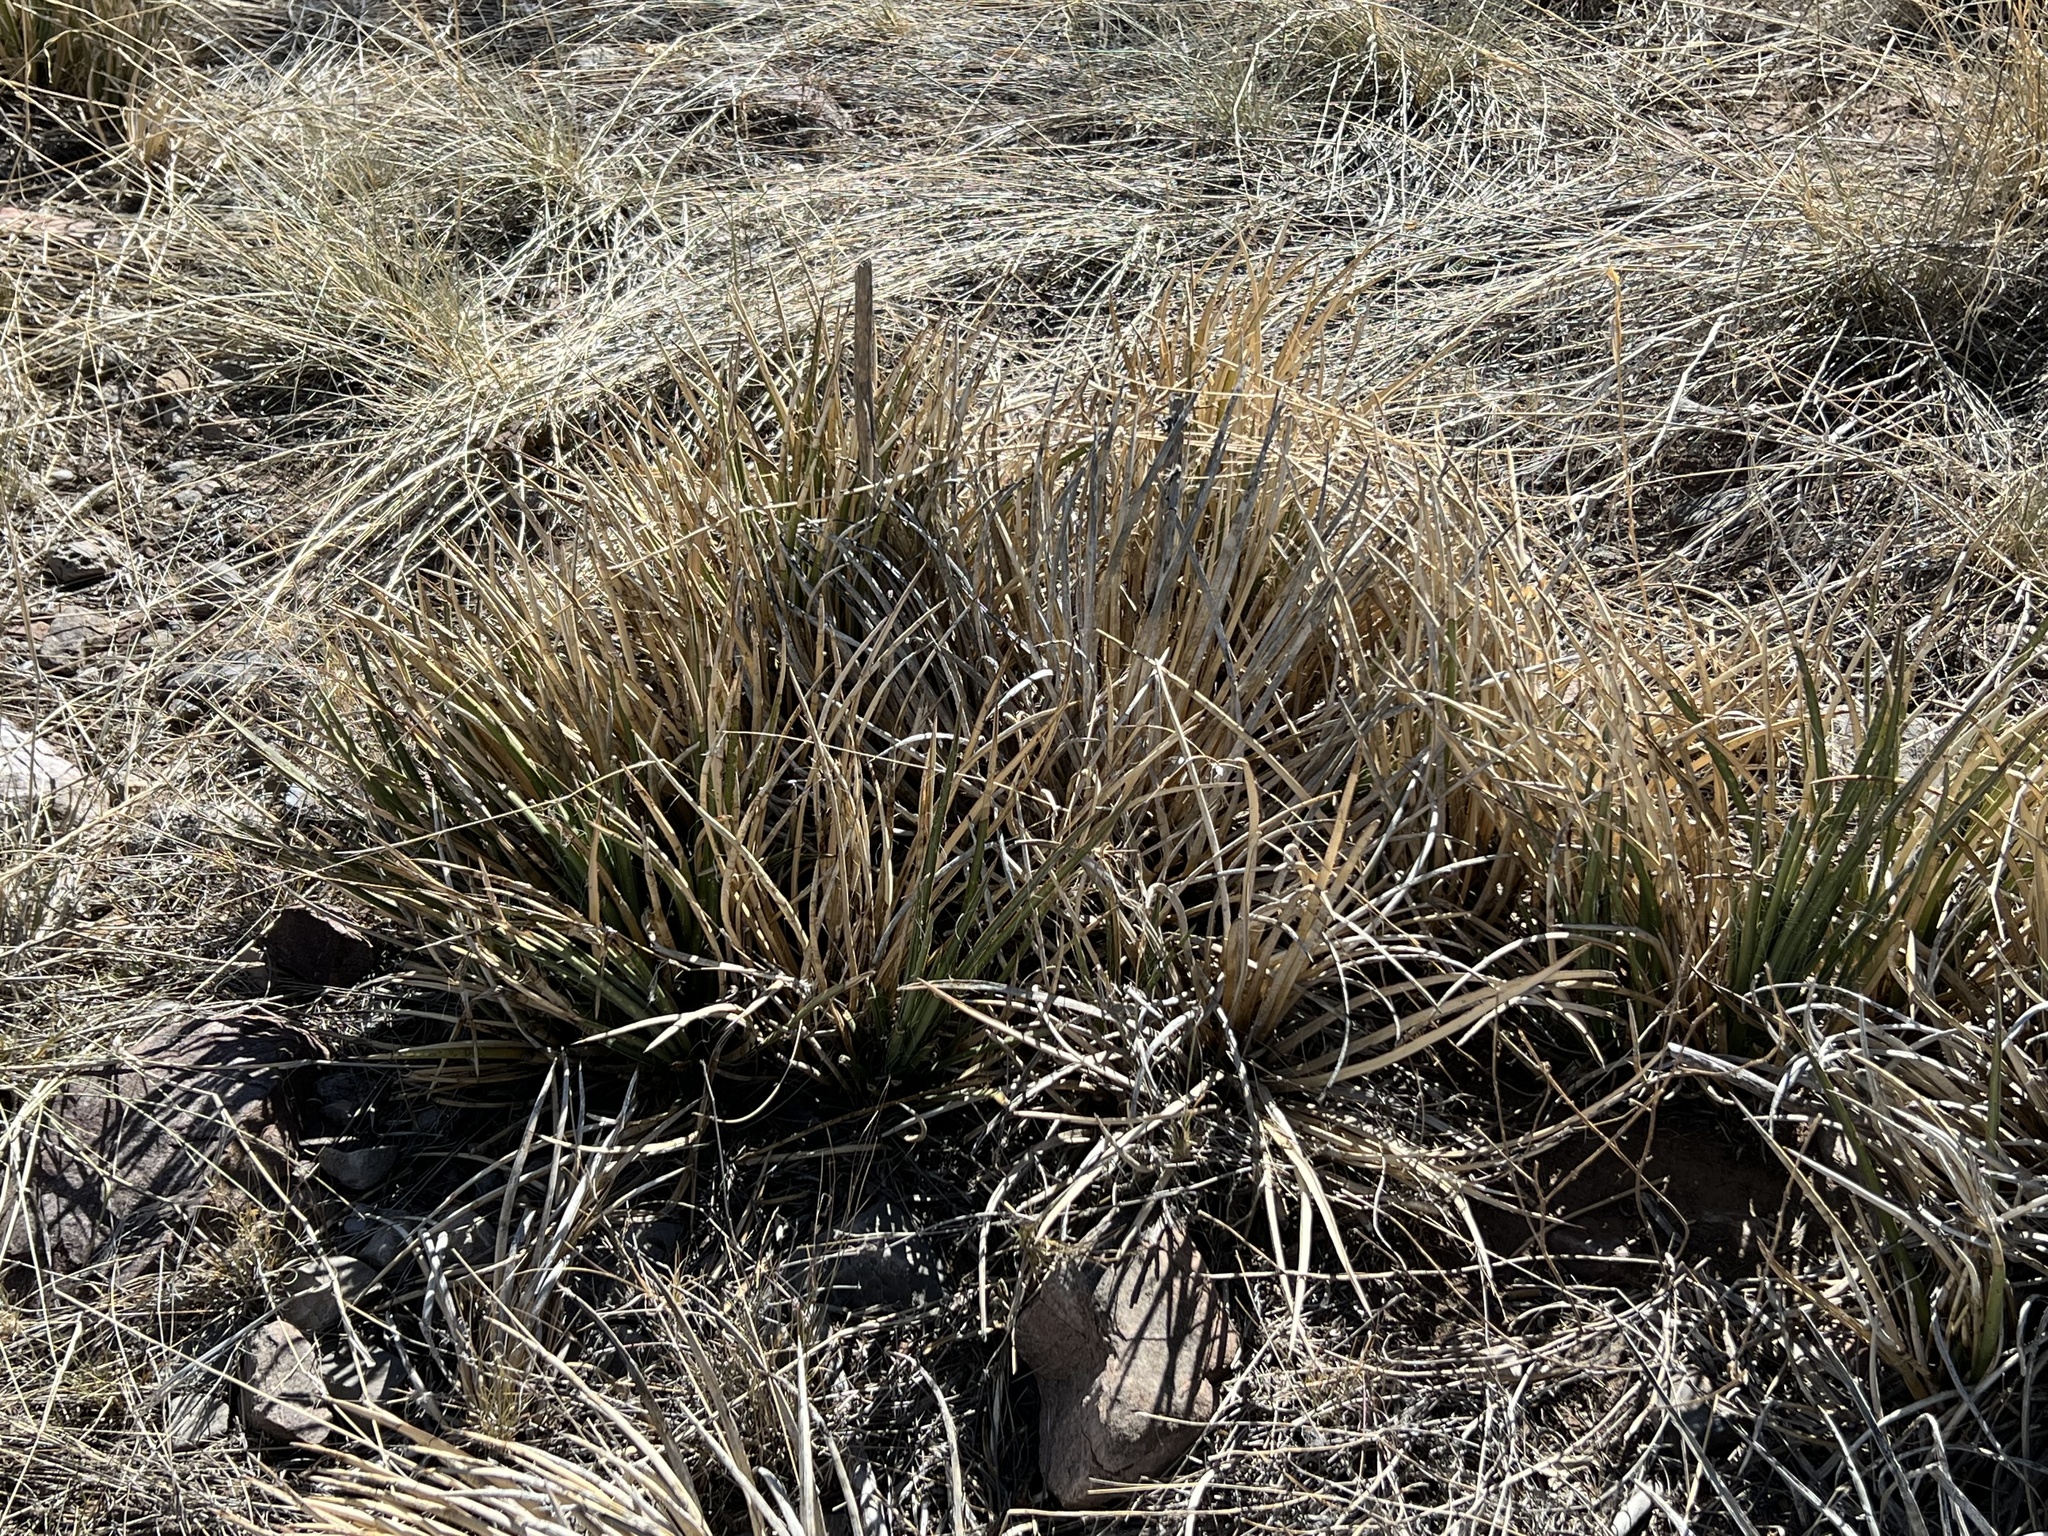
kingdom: Plantae
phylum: Tracheophyta
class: Liliopsida
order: Asparagales
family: Asparagaceae
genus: Agave
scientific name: Agave schottii
